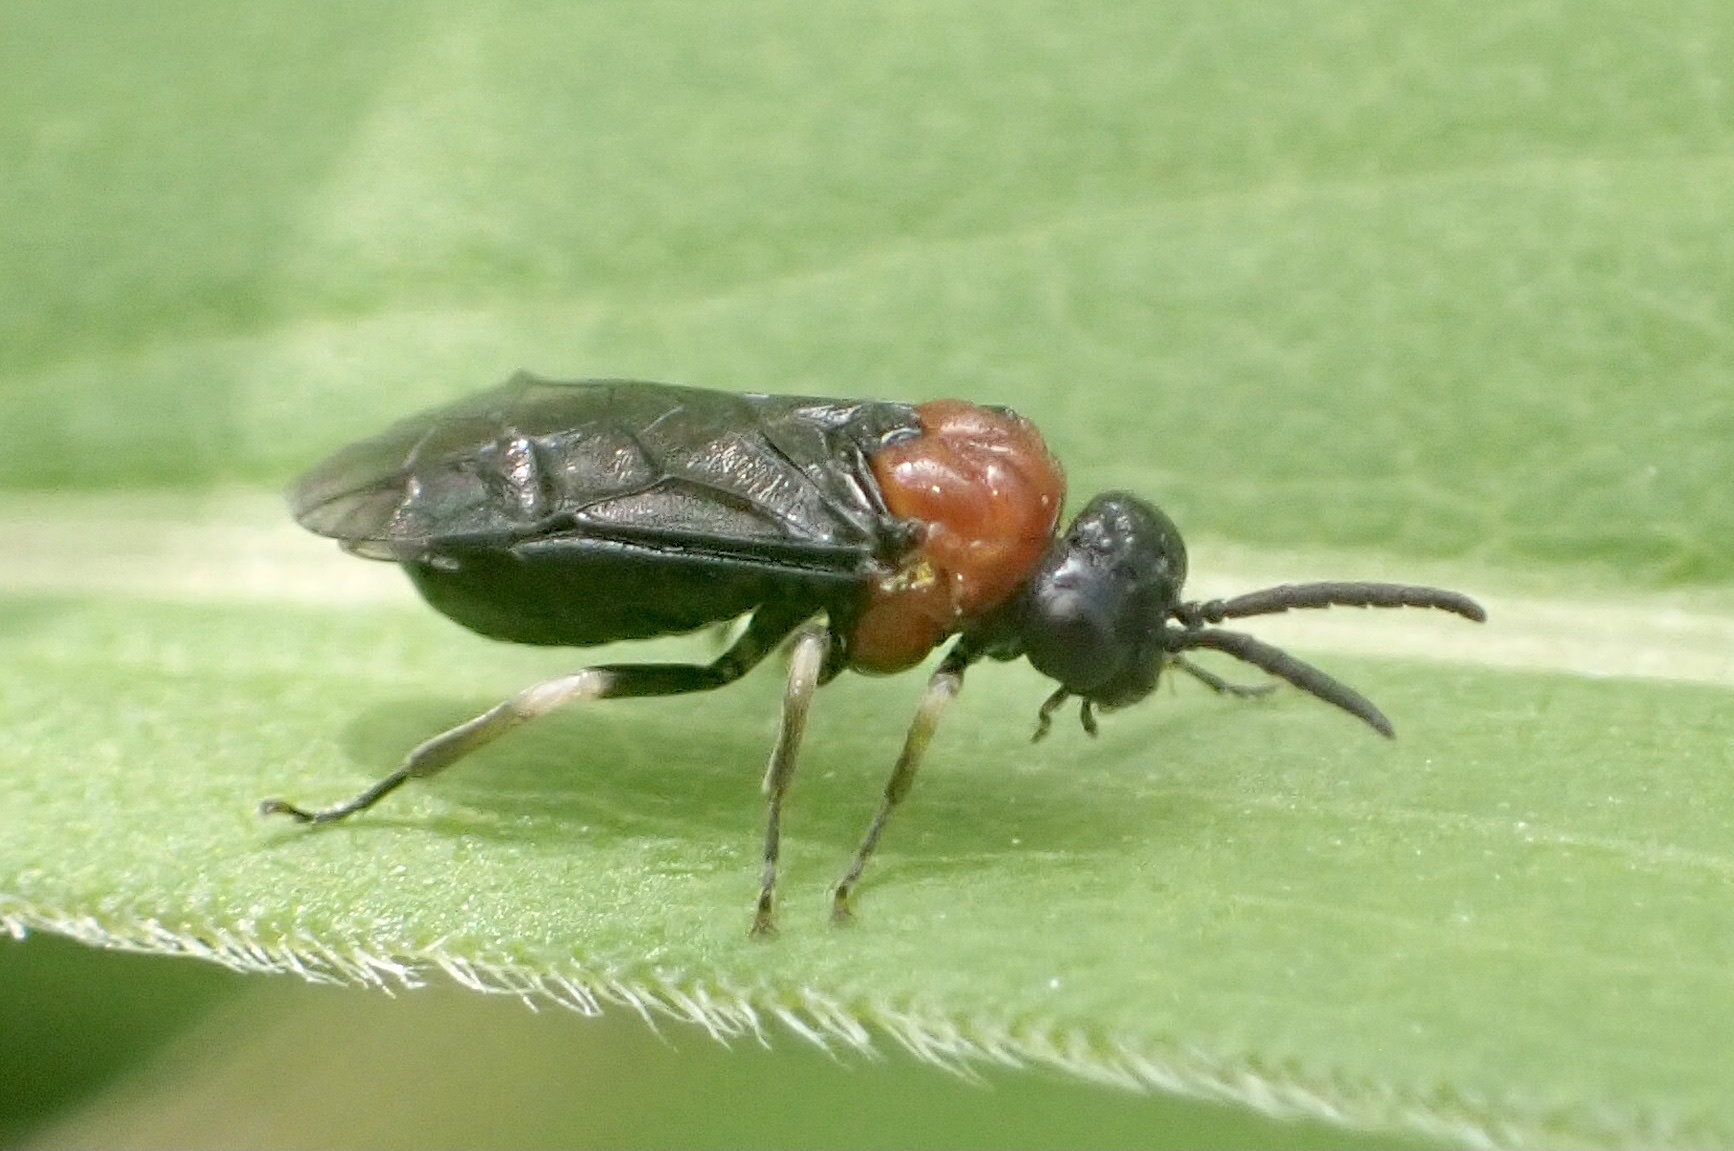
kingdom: Animalia
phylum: Arthropoda
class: Insecta
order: Hymenoptera
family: Tenthredinidae
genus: Eutomostethus
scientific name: Eutomostethus ephippium
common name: Tenthredid wasp
